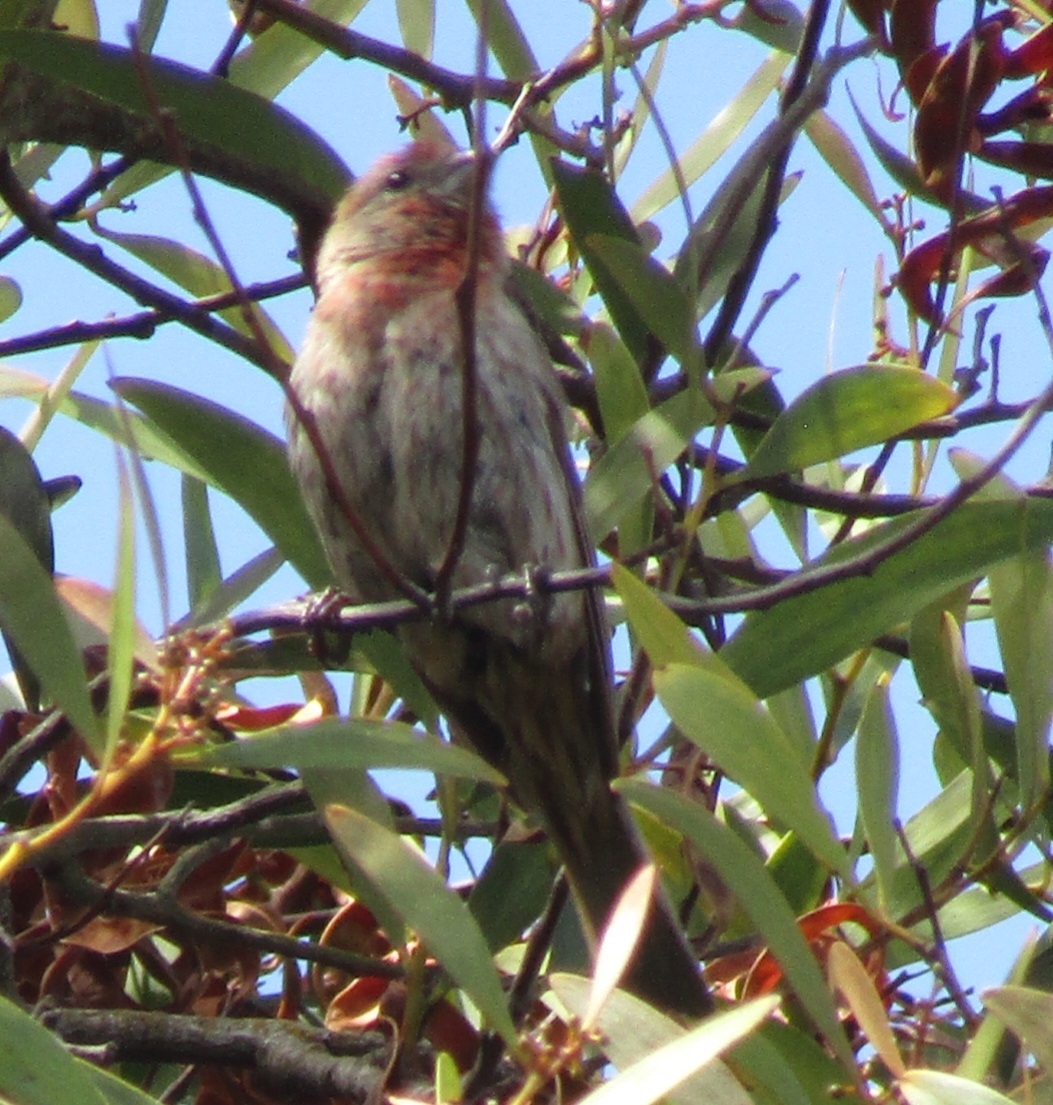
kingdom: Animalia
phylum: Chordata
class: Aves
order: Passeriformes
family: Fringillidae
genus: Haemorhous
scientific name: Haemorhous mexicanus
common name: House finch
